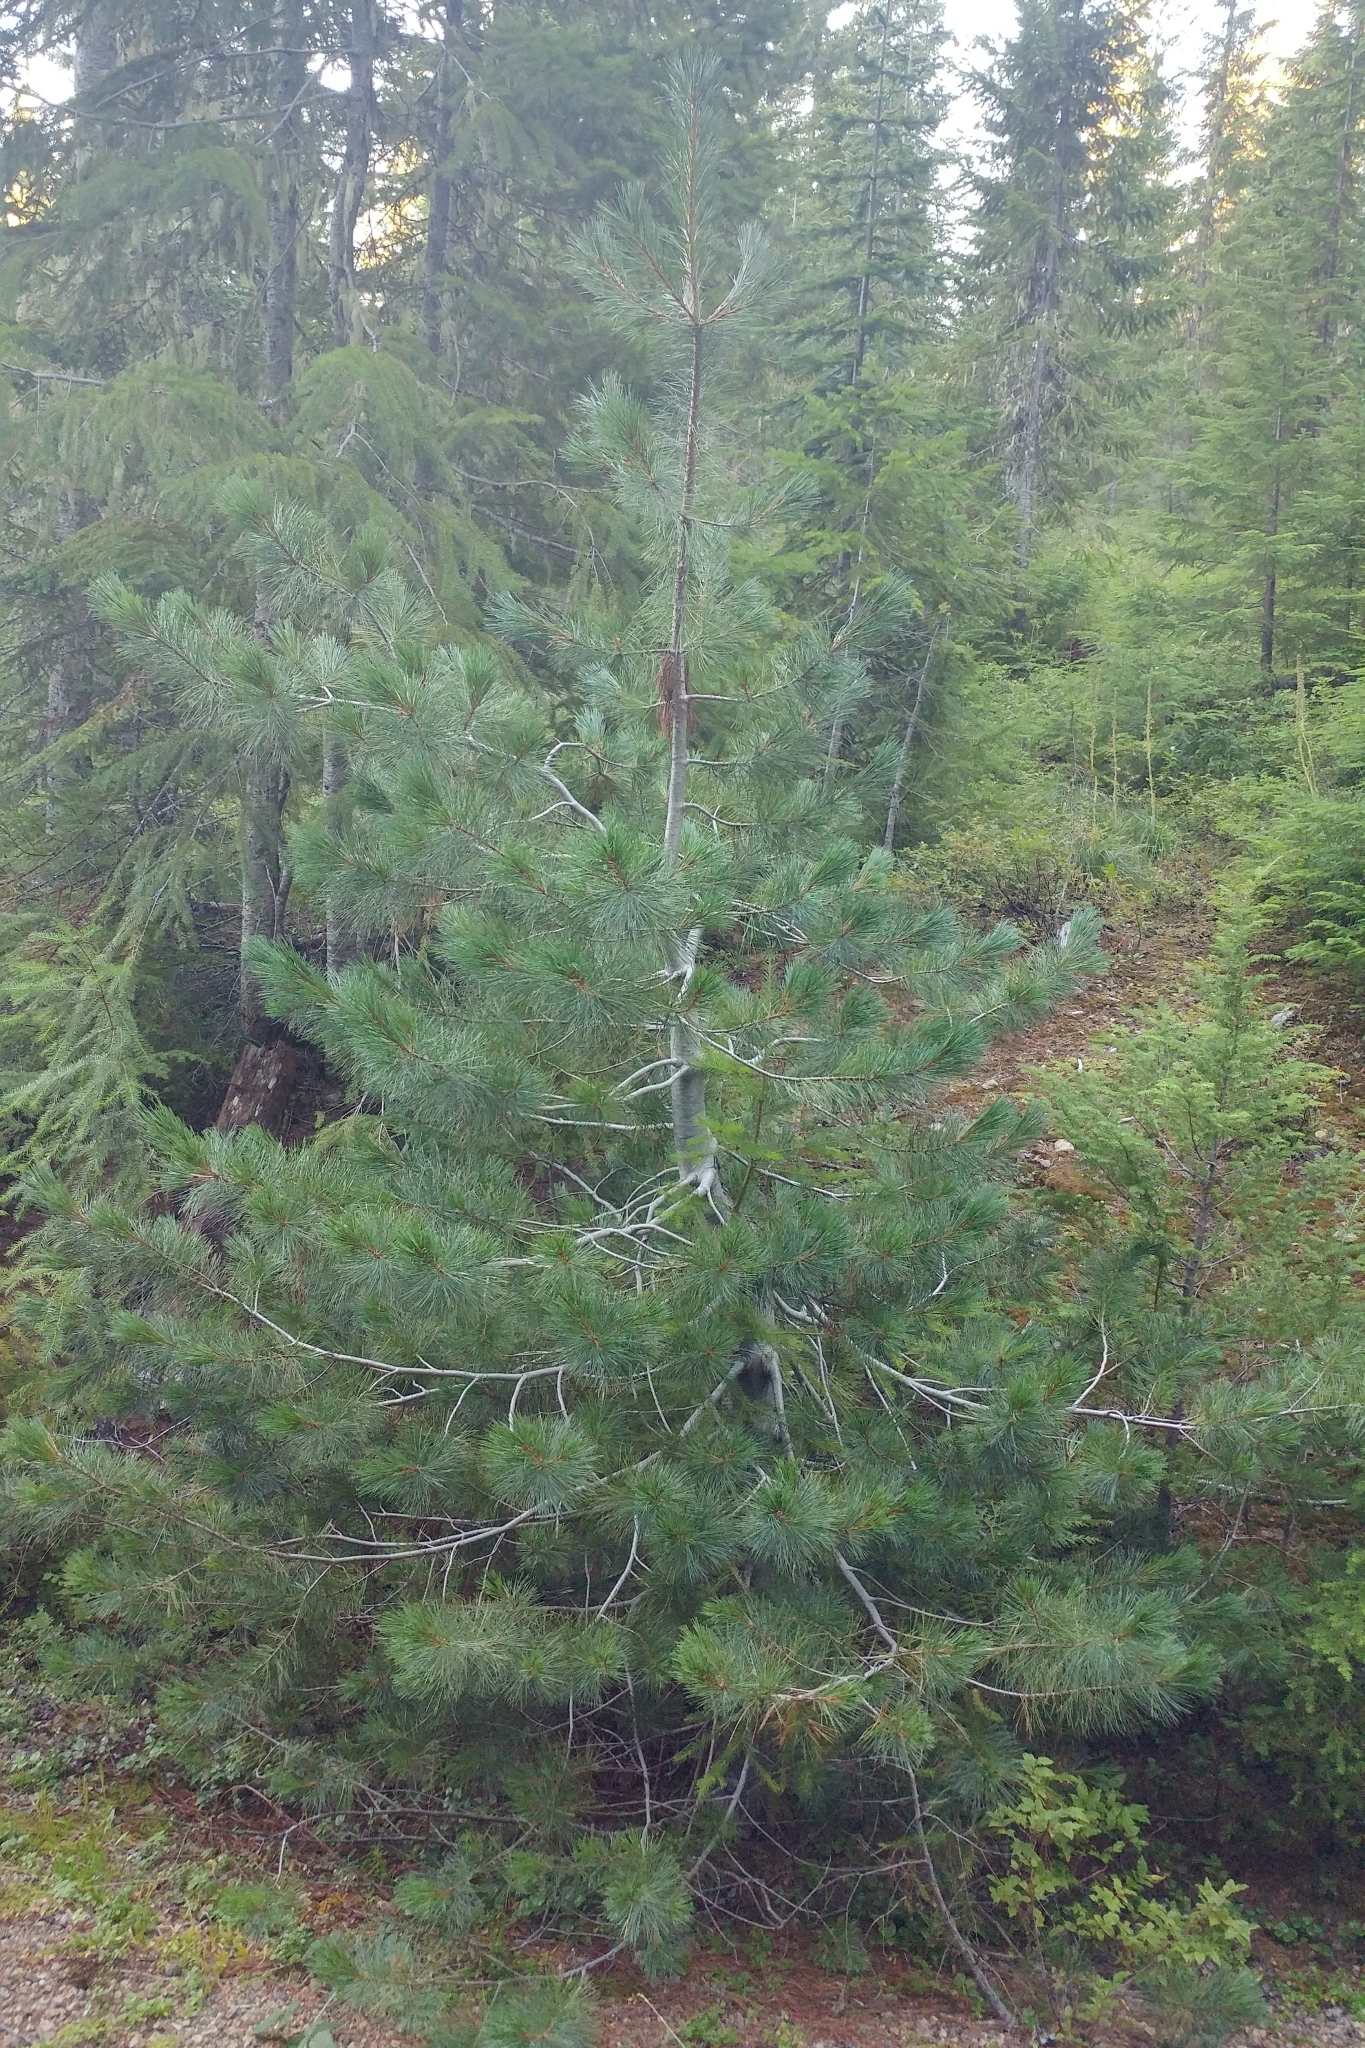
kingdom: Plantae
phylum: Tracheophyta
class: Pinopsida
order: Pinales
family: Pinaceae
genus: Pinus
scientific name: Pinus monticola
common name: Western white pine
